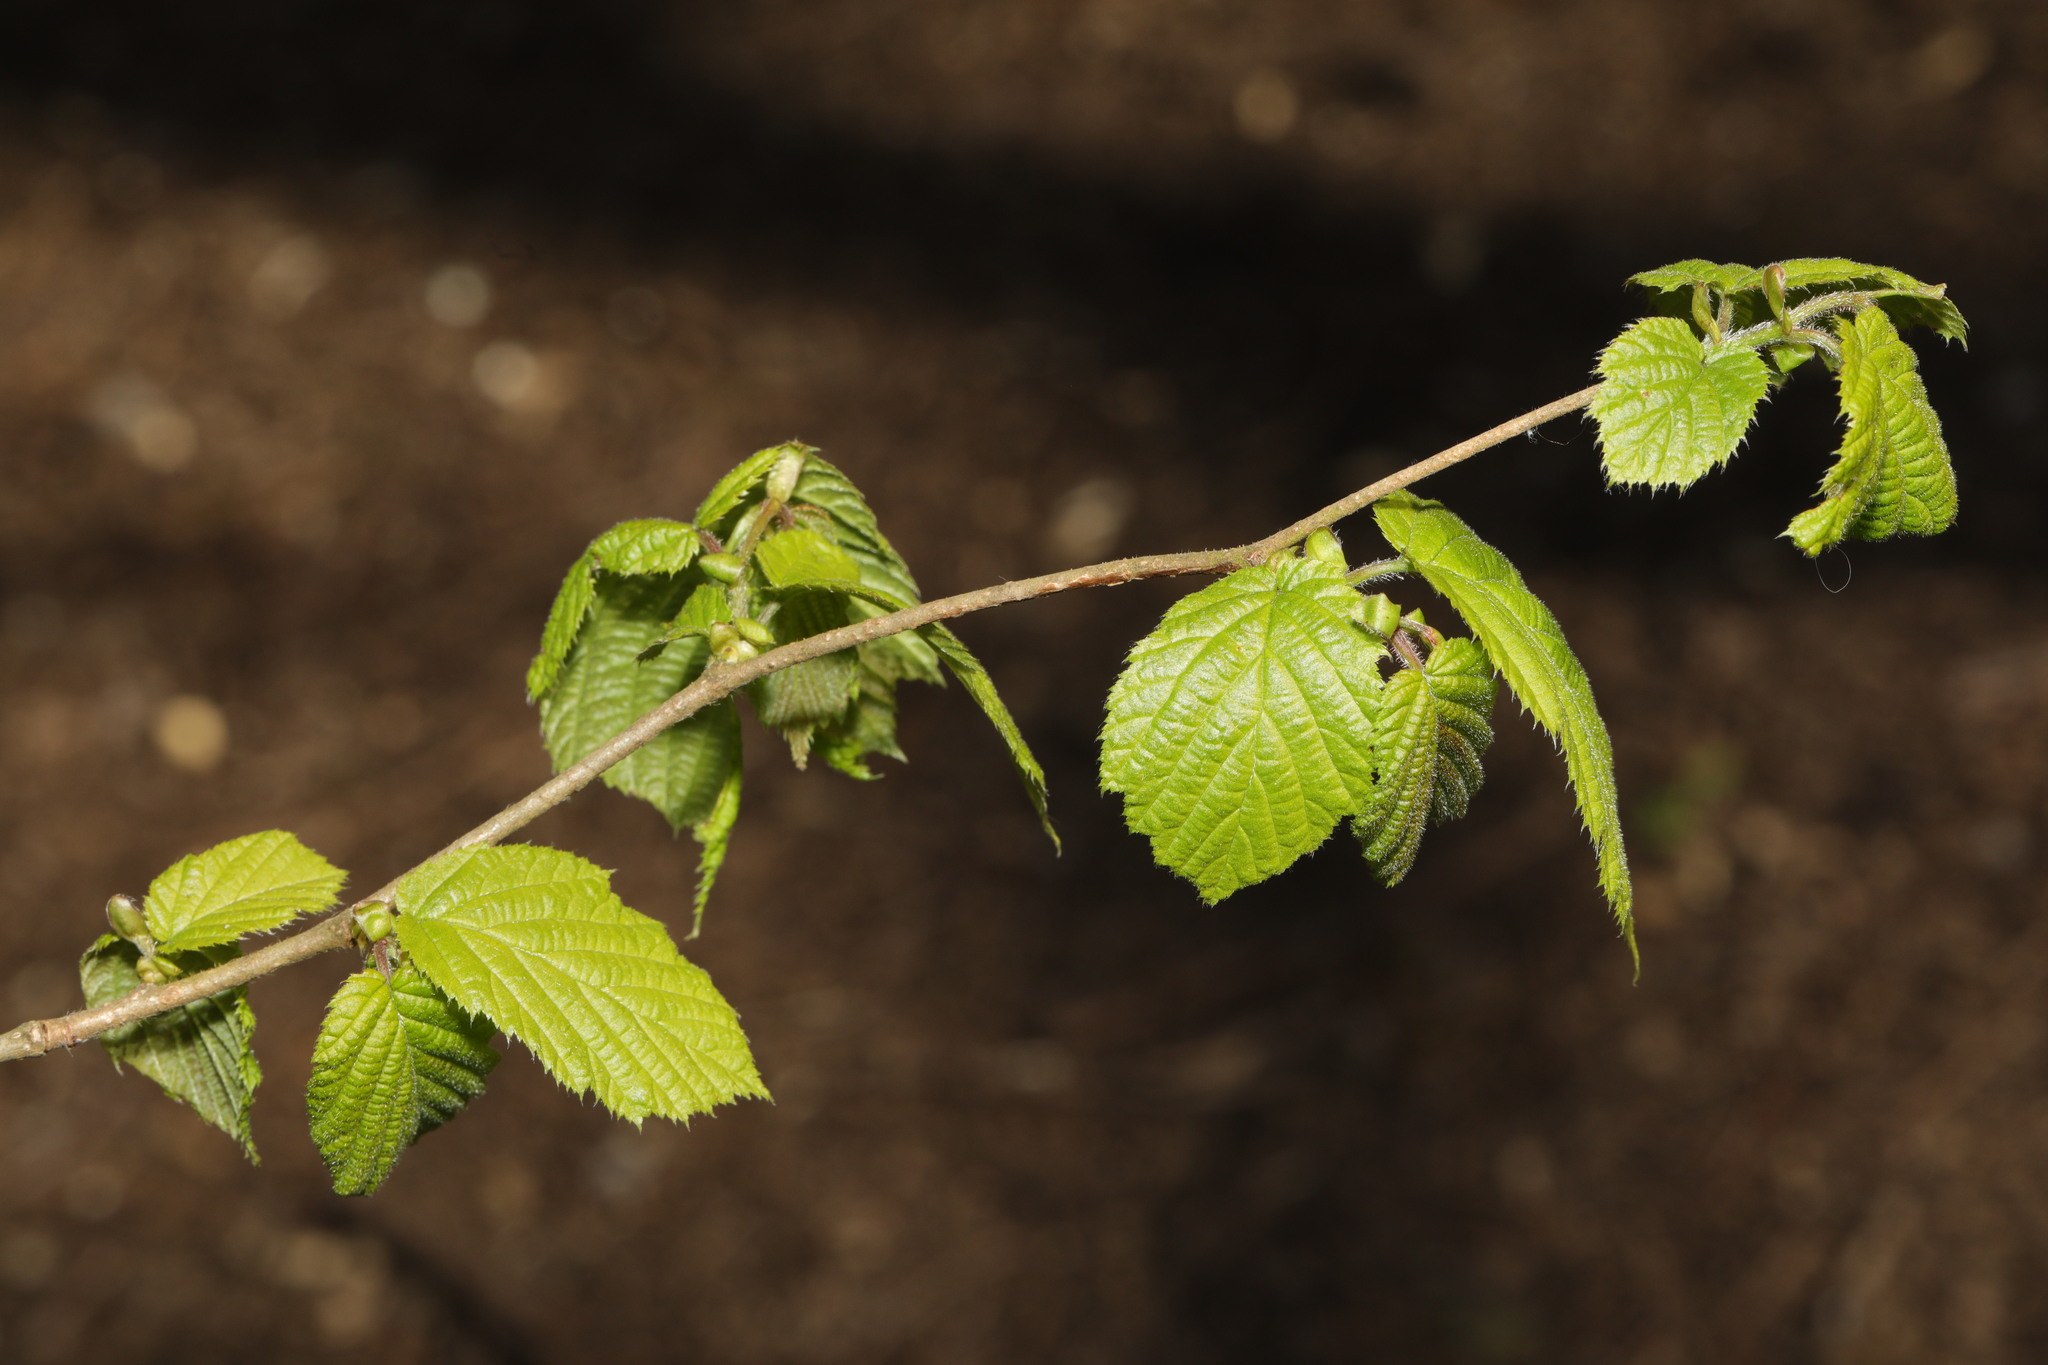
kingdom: Plantae
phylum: Tracheophyta
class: Magnoliopsida
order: Fagales
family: Betulaceae
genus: Corylus
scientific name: Corylus avellana
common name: European hazel
